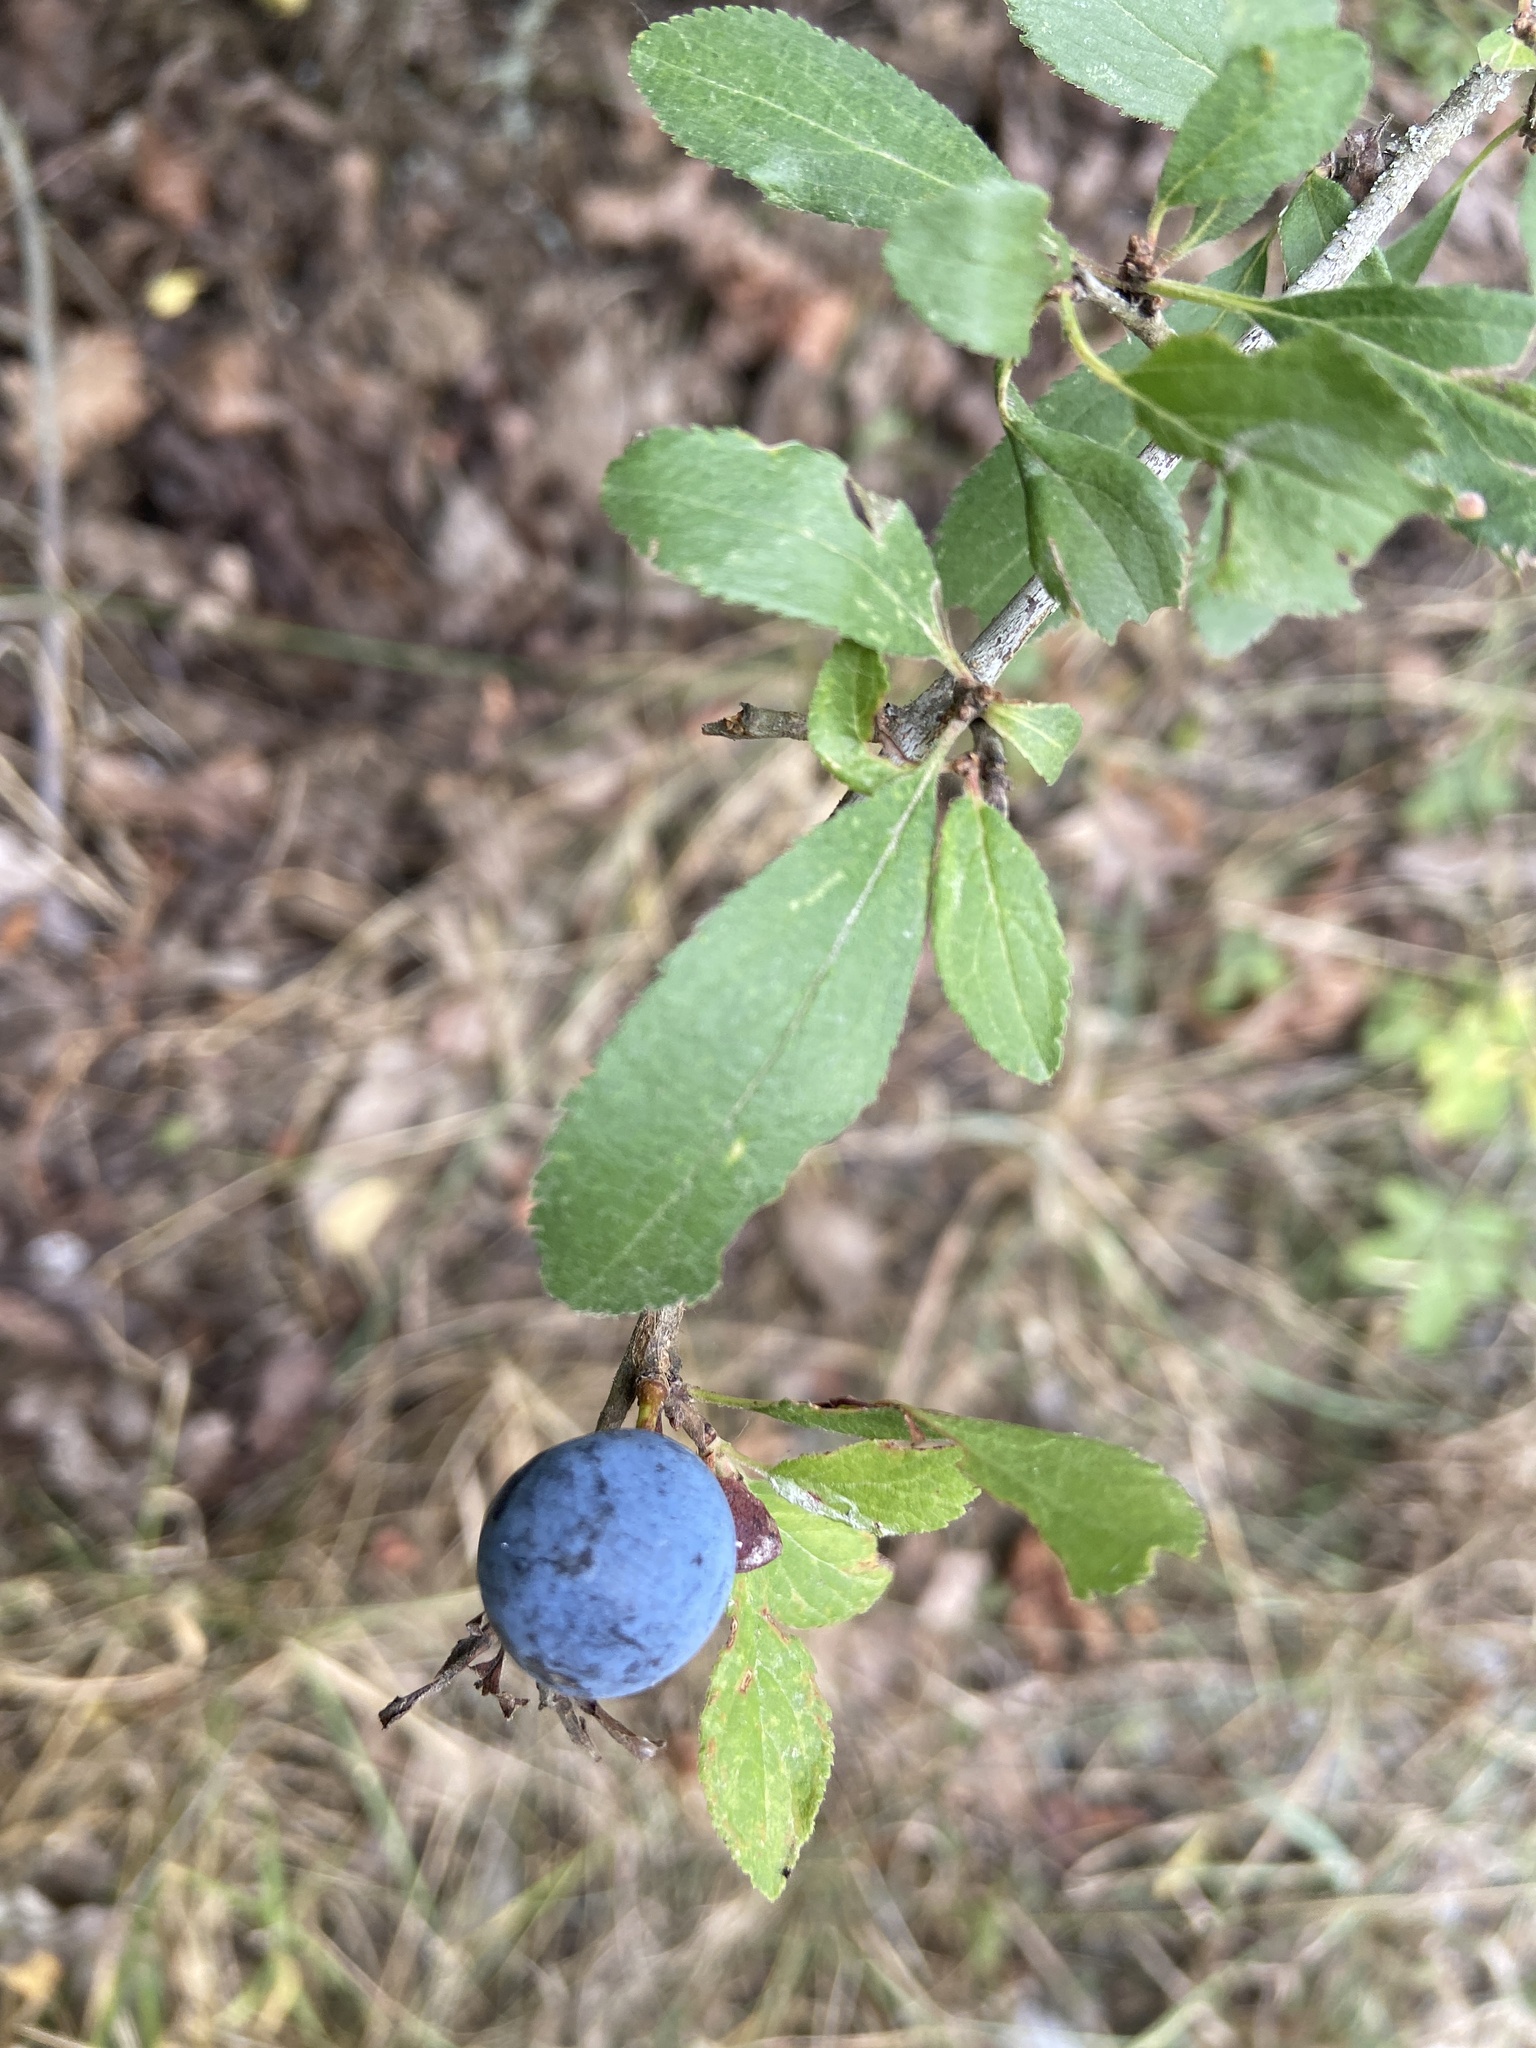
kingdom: Plantae
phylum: Tracheophyta
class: Magnoliopsida
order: Rosales
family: Rosaceae
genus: Prunus
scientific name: Prunus spinosa
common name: Blackthorn
